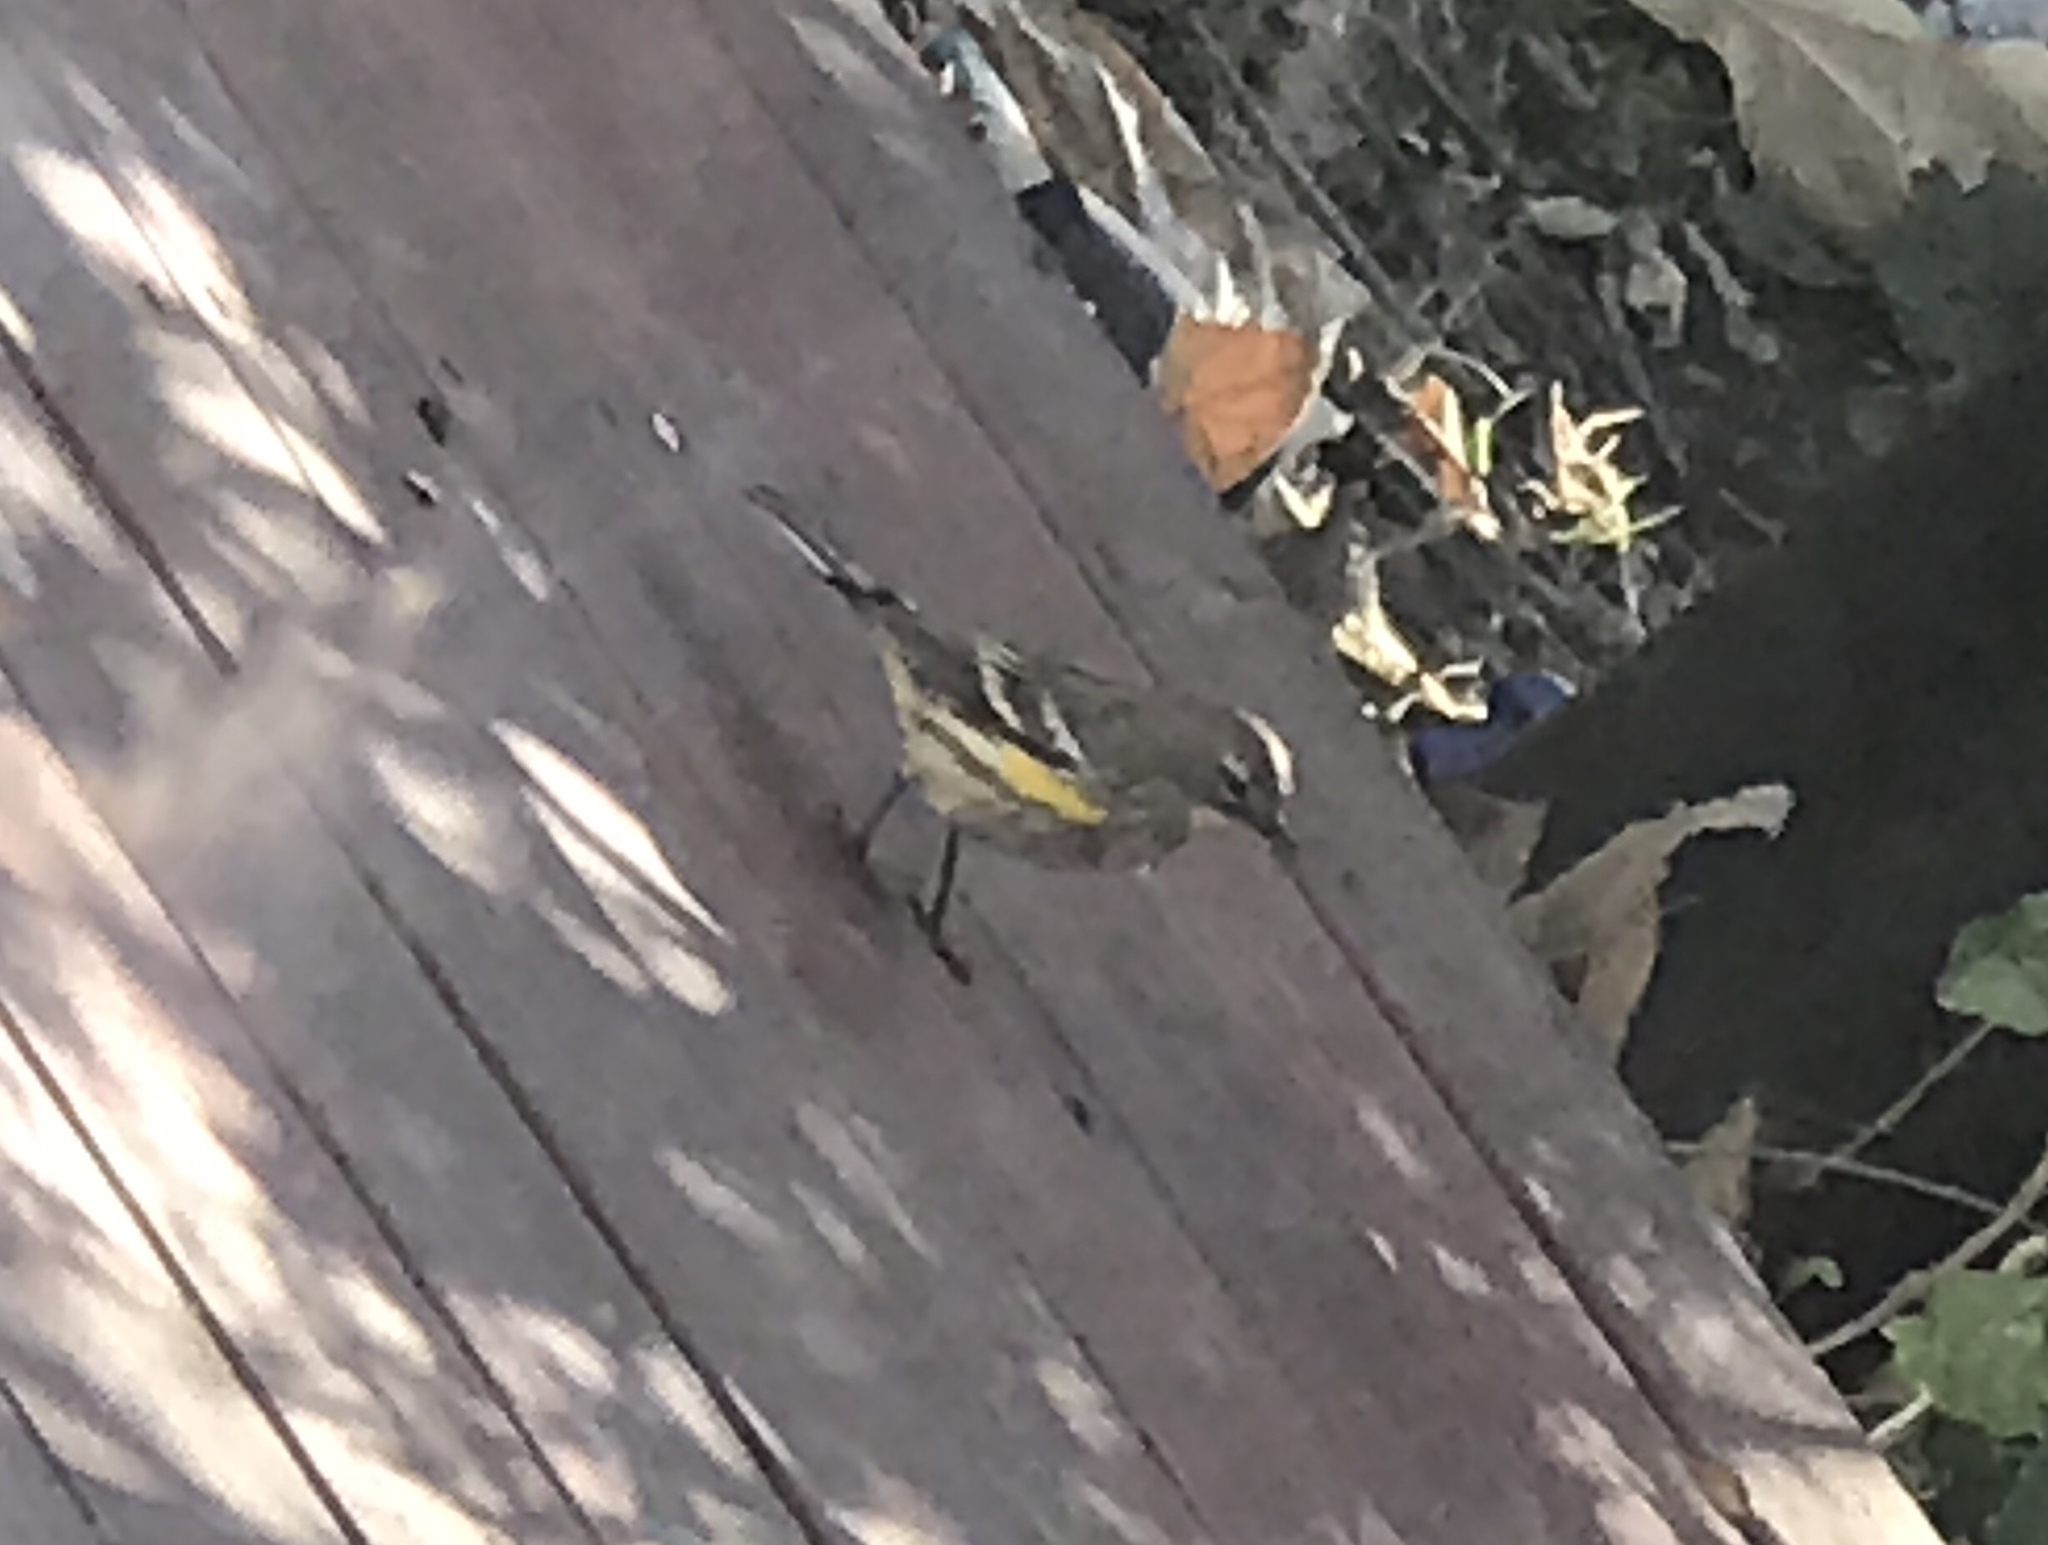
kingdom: Animalia
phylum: Chordata
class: Aves
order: Passeriformes
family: Parulidae
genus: Setophaga
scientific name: Setophaga coronata
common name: Myrtle warbler
